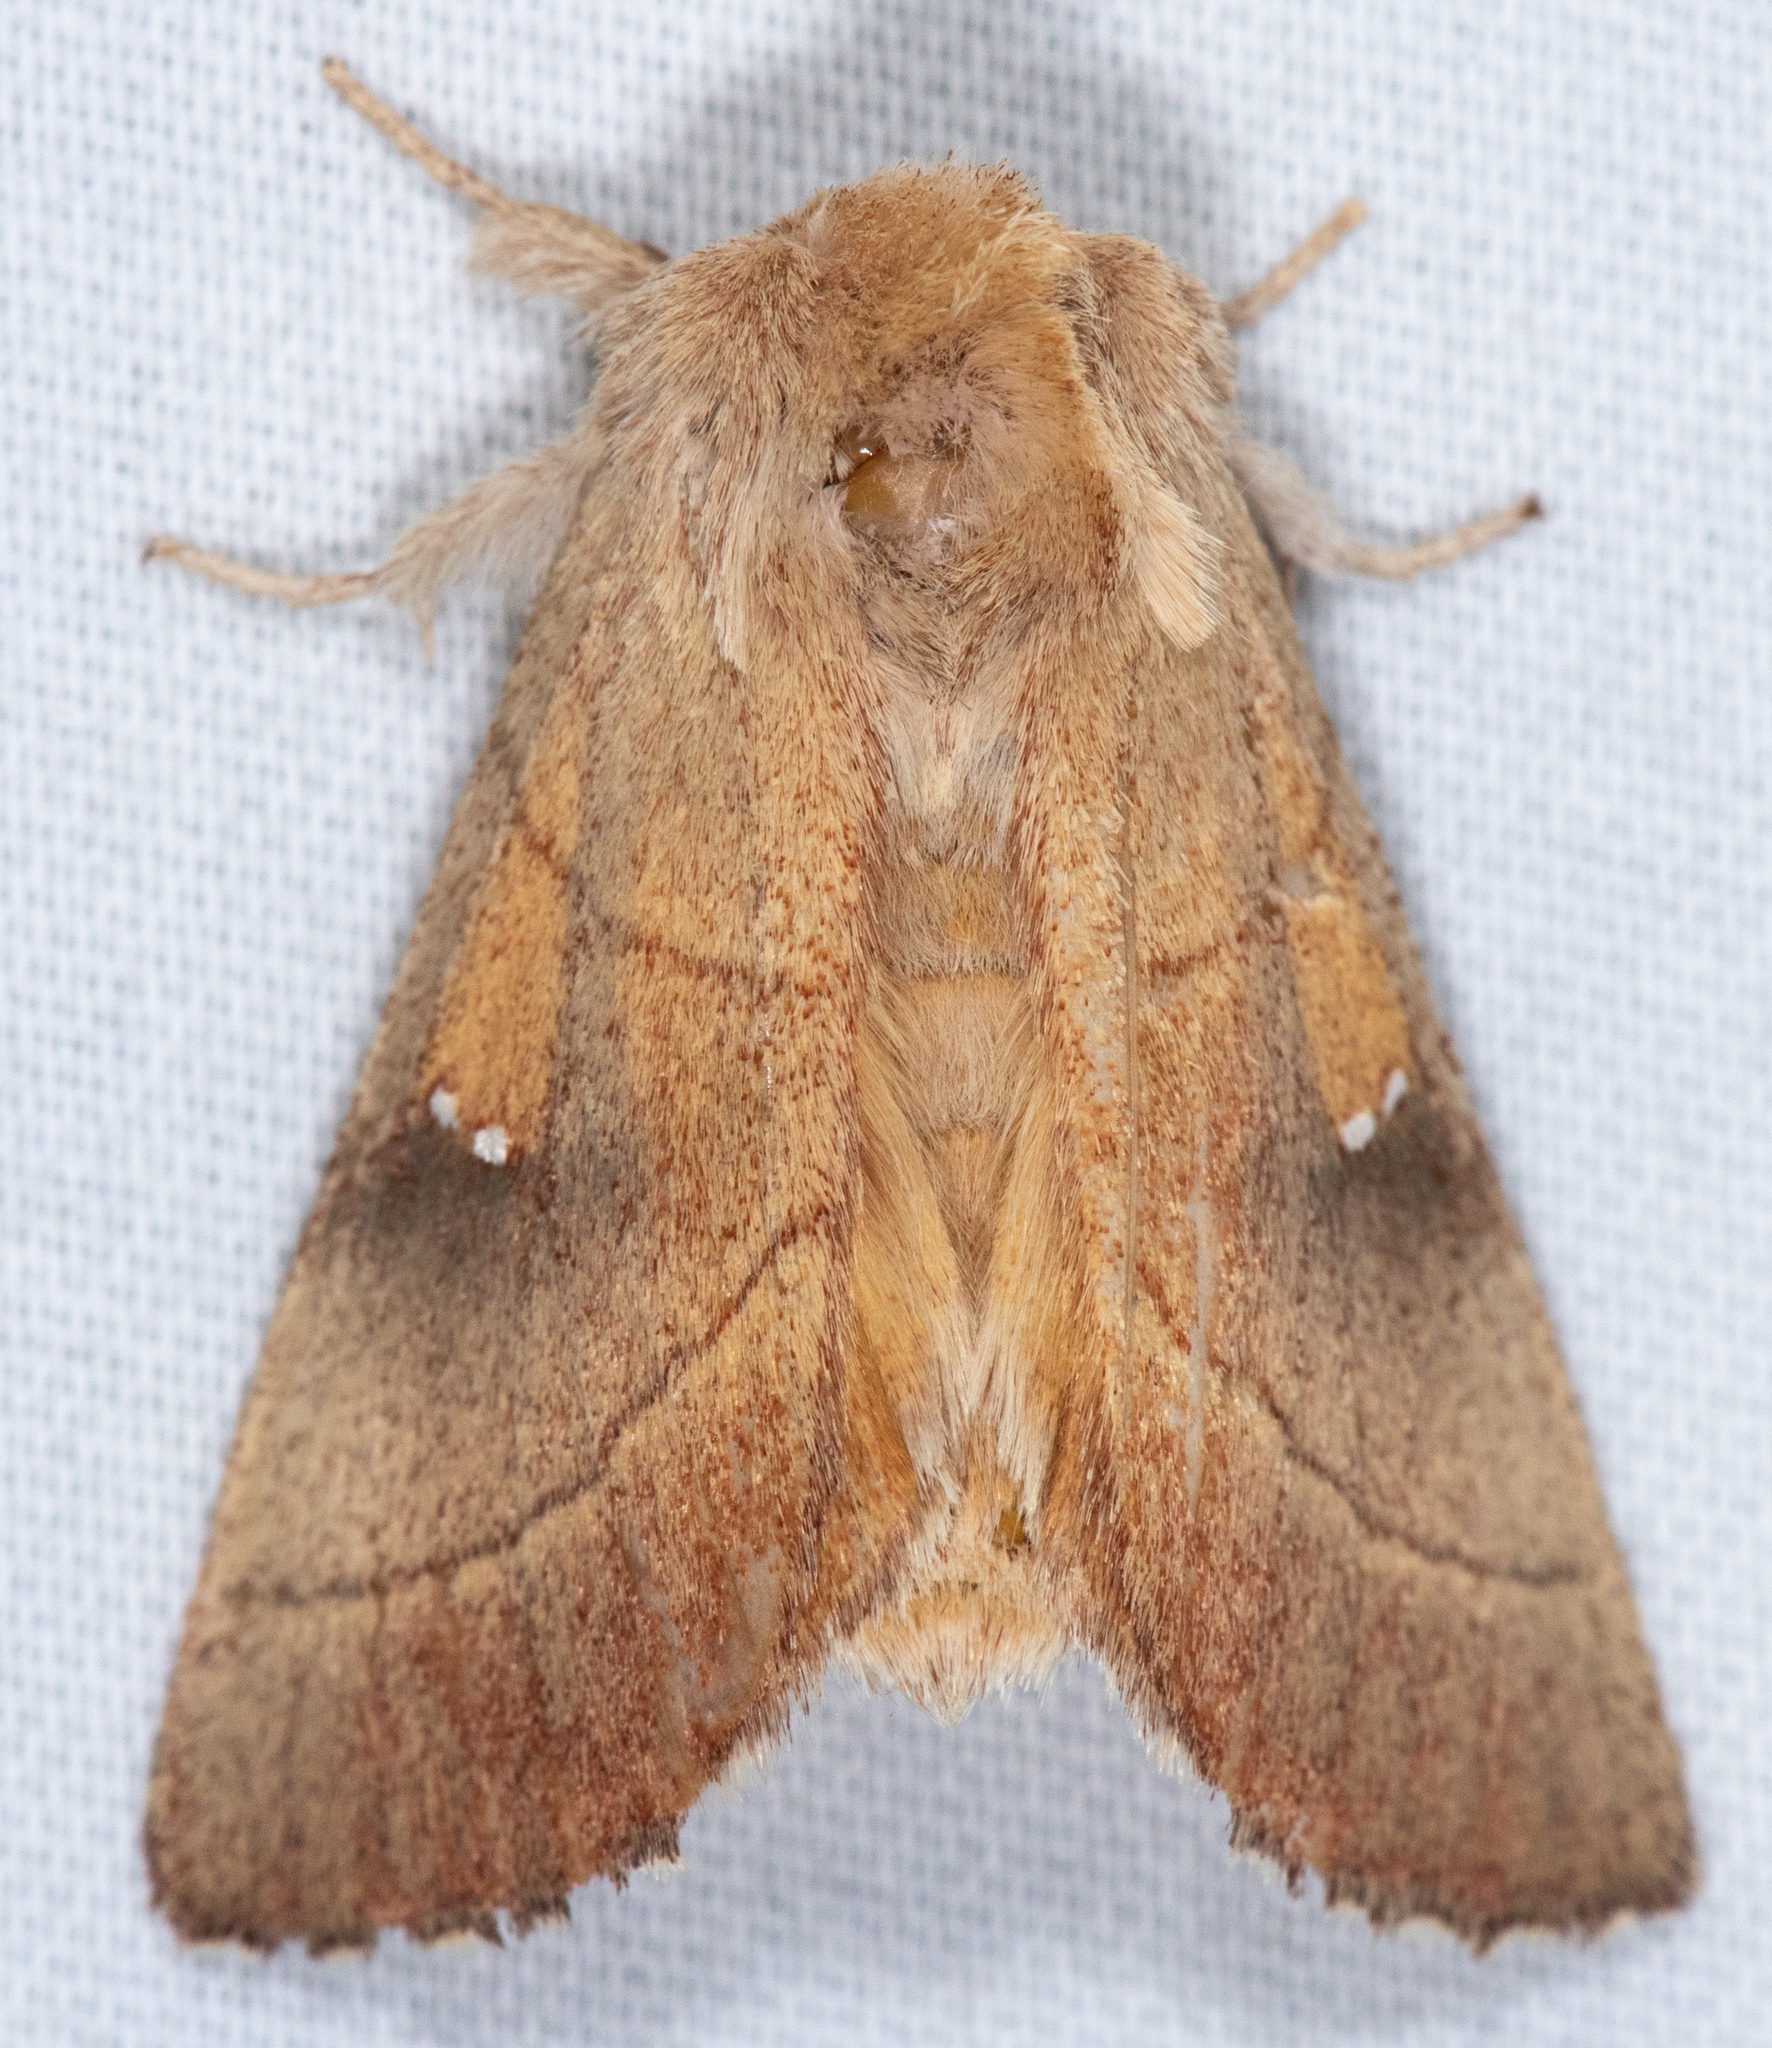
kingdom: Animalia
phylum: Arthropoda
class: Insecta
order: Lepidoptera
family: Notodontidae
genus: Nadata
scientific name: Nadata gibbosa
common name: White-dotted prominent
